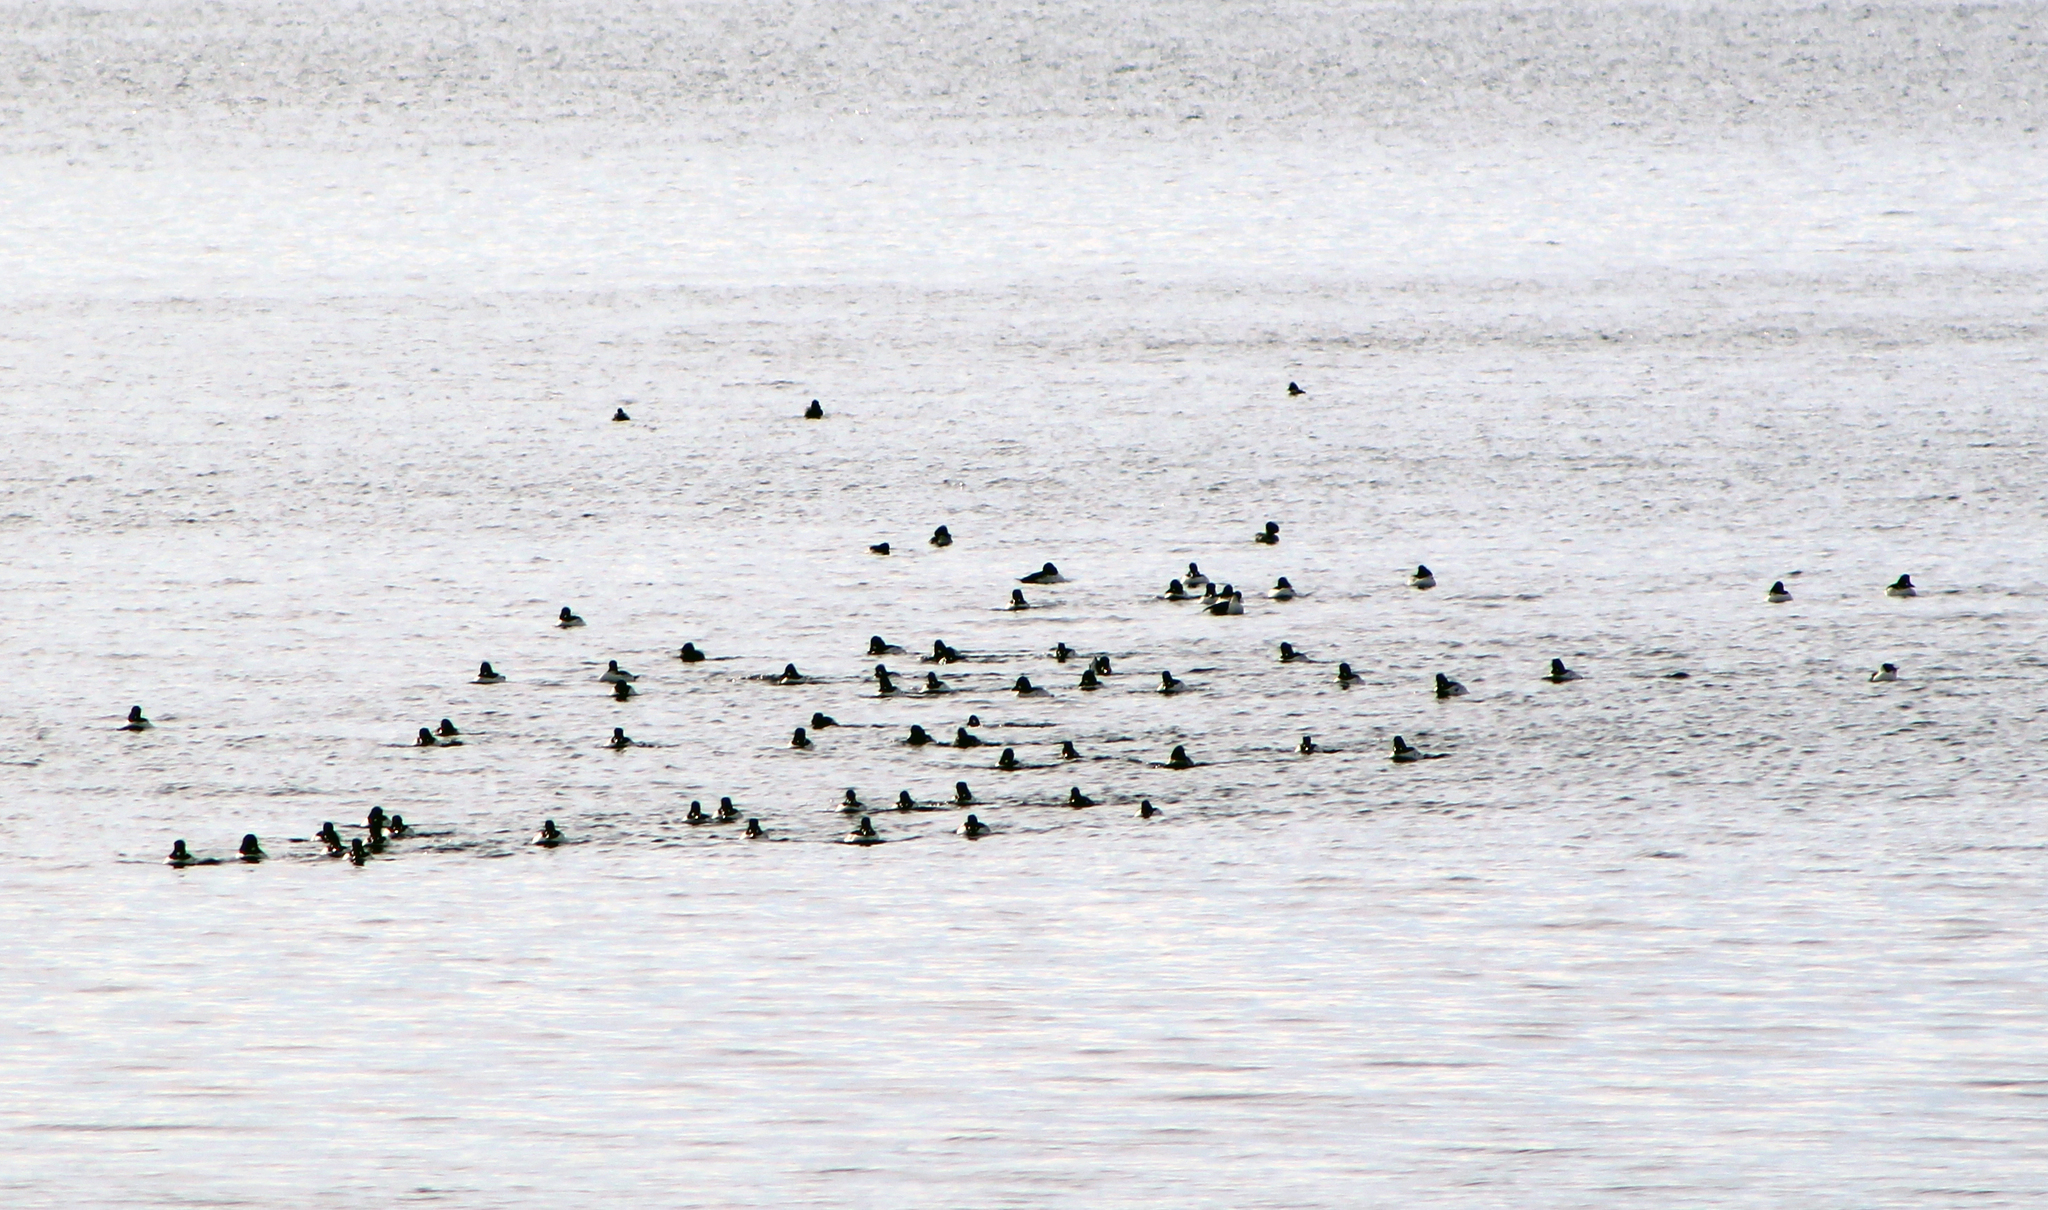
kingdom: Animalia
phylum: Chordata
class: Aves
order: Anseriformes
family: Anatidae
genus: Bucephala
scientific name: Bucephala clangula
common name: Common goldeneye
